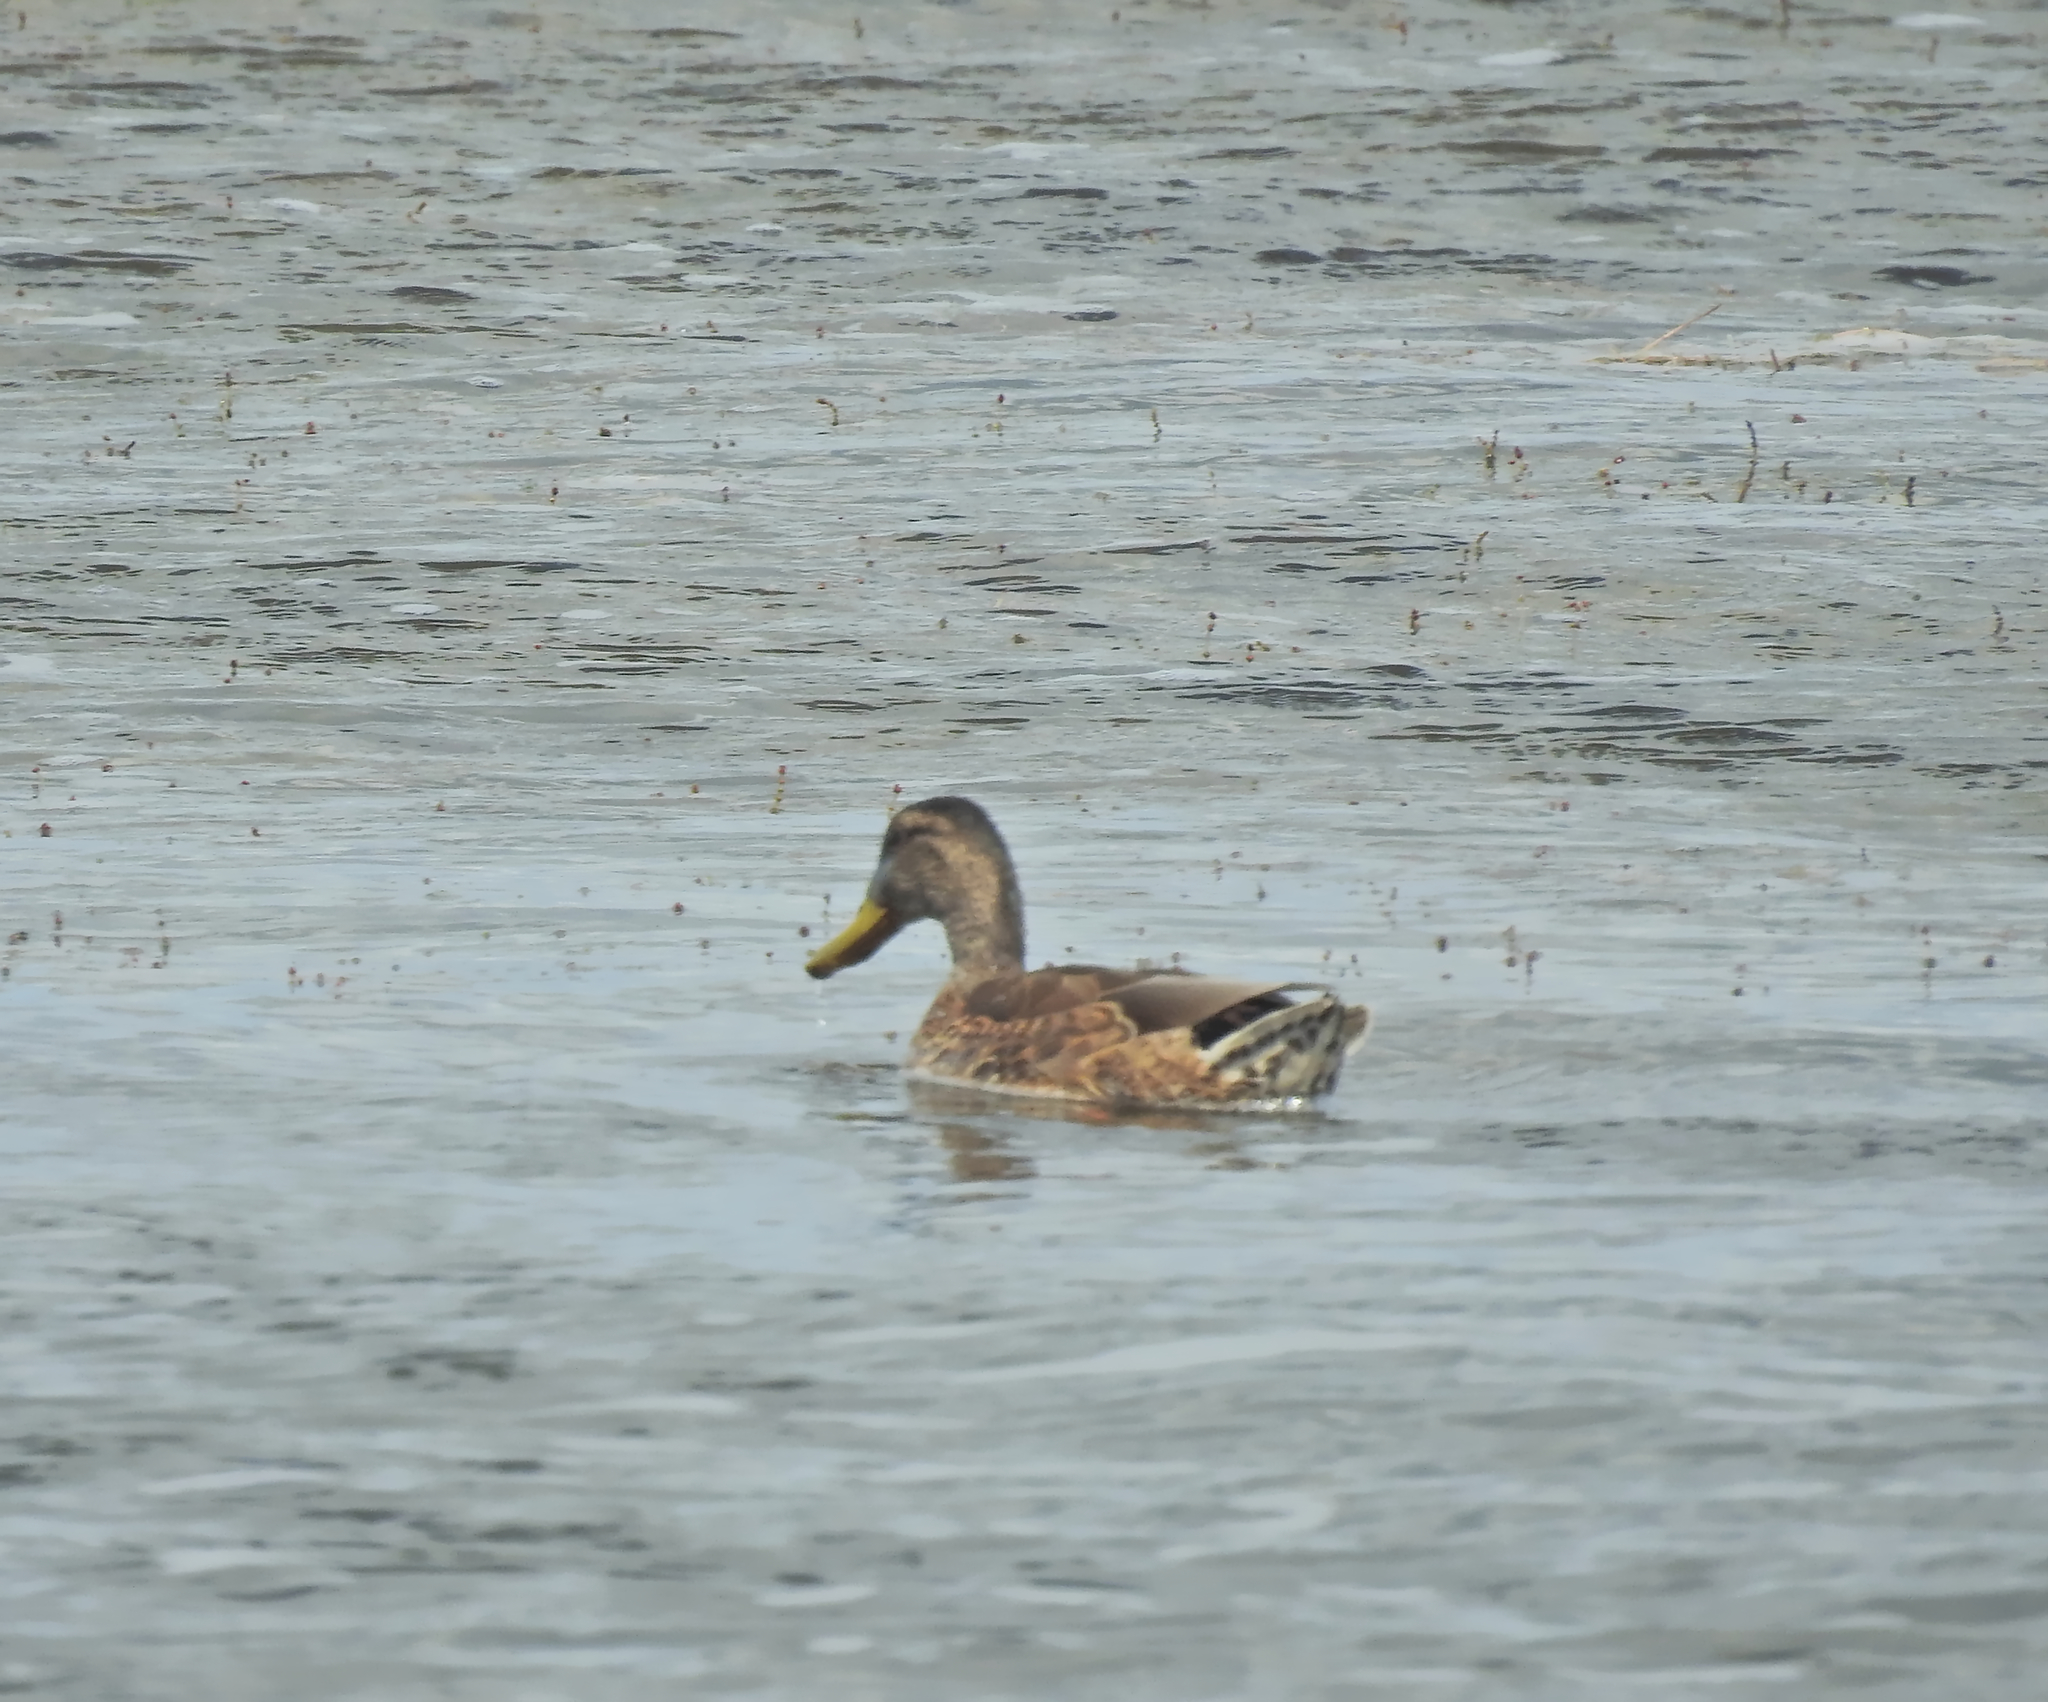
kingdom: Animalia
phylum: Chordata
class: Aves
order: Anseriformes
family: Anatidae
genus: Anas
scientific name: Anas platyrhynchos
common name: Mallard
